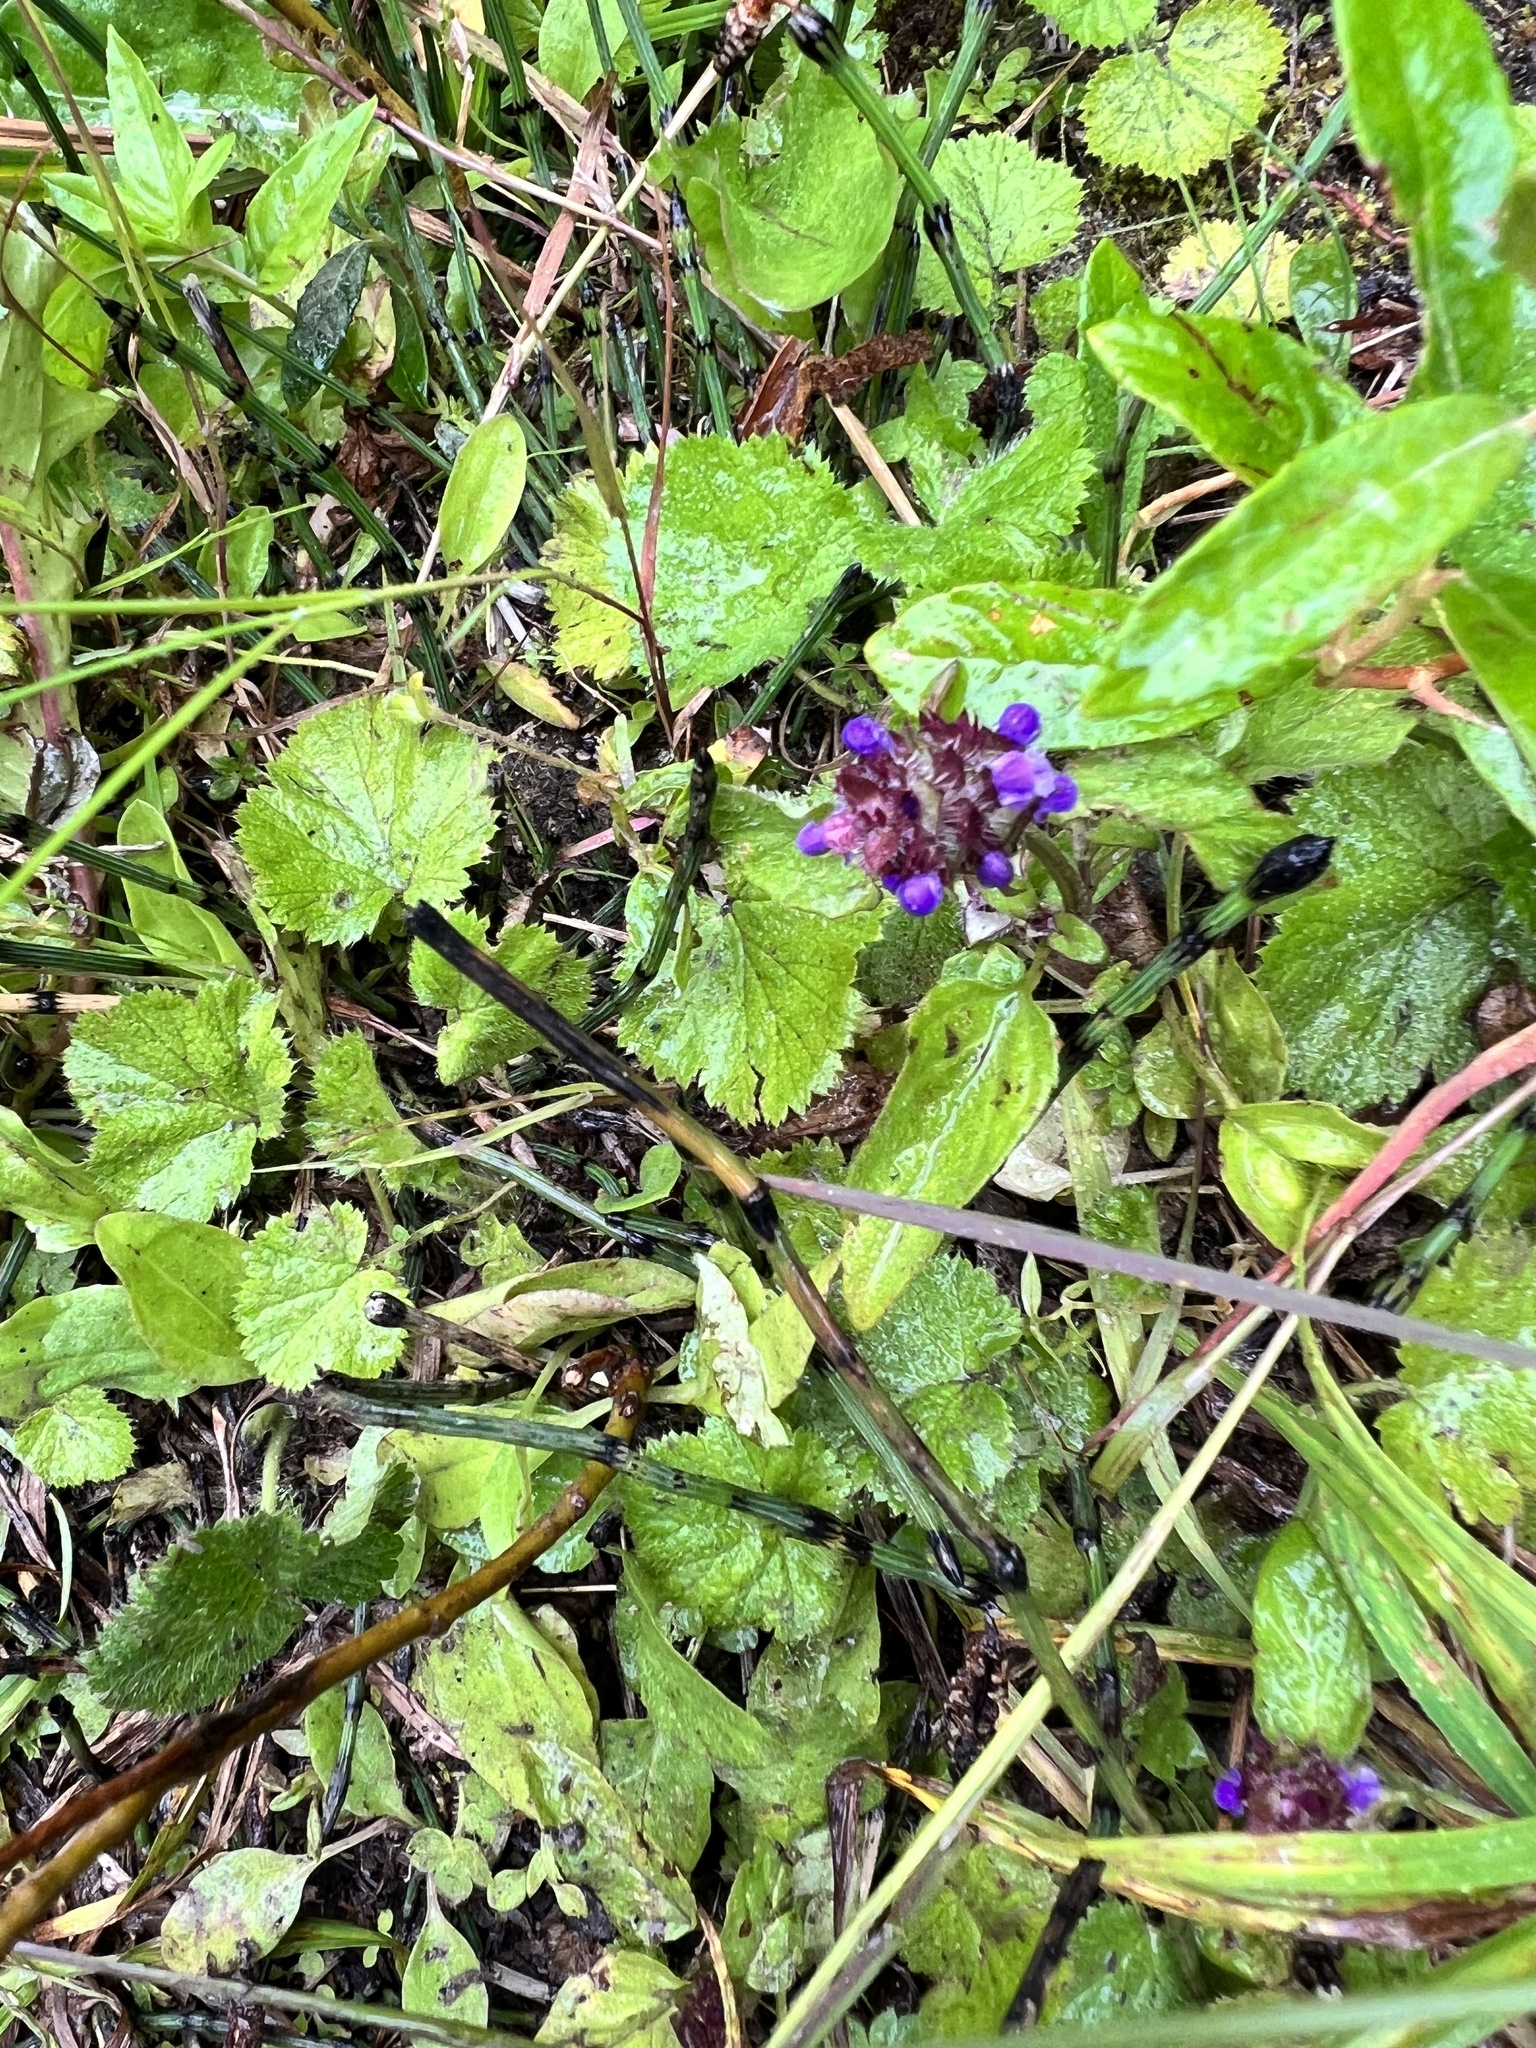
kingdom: Plantae
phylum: Tracheophyta
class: Magnoliopsida
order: Lamiales
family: Lamiaceae
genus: Prunella
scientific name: Prunella vulgaris
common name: Heal-all
